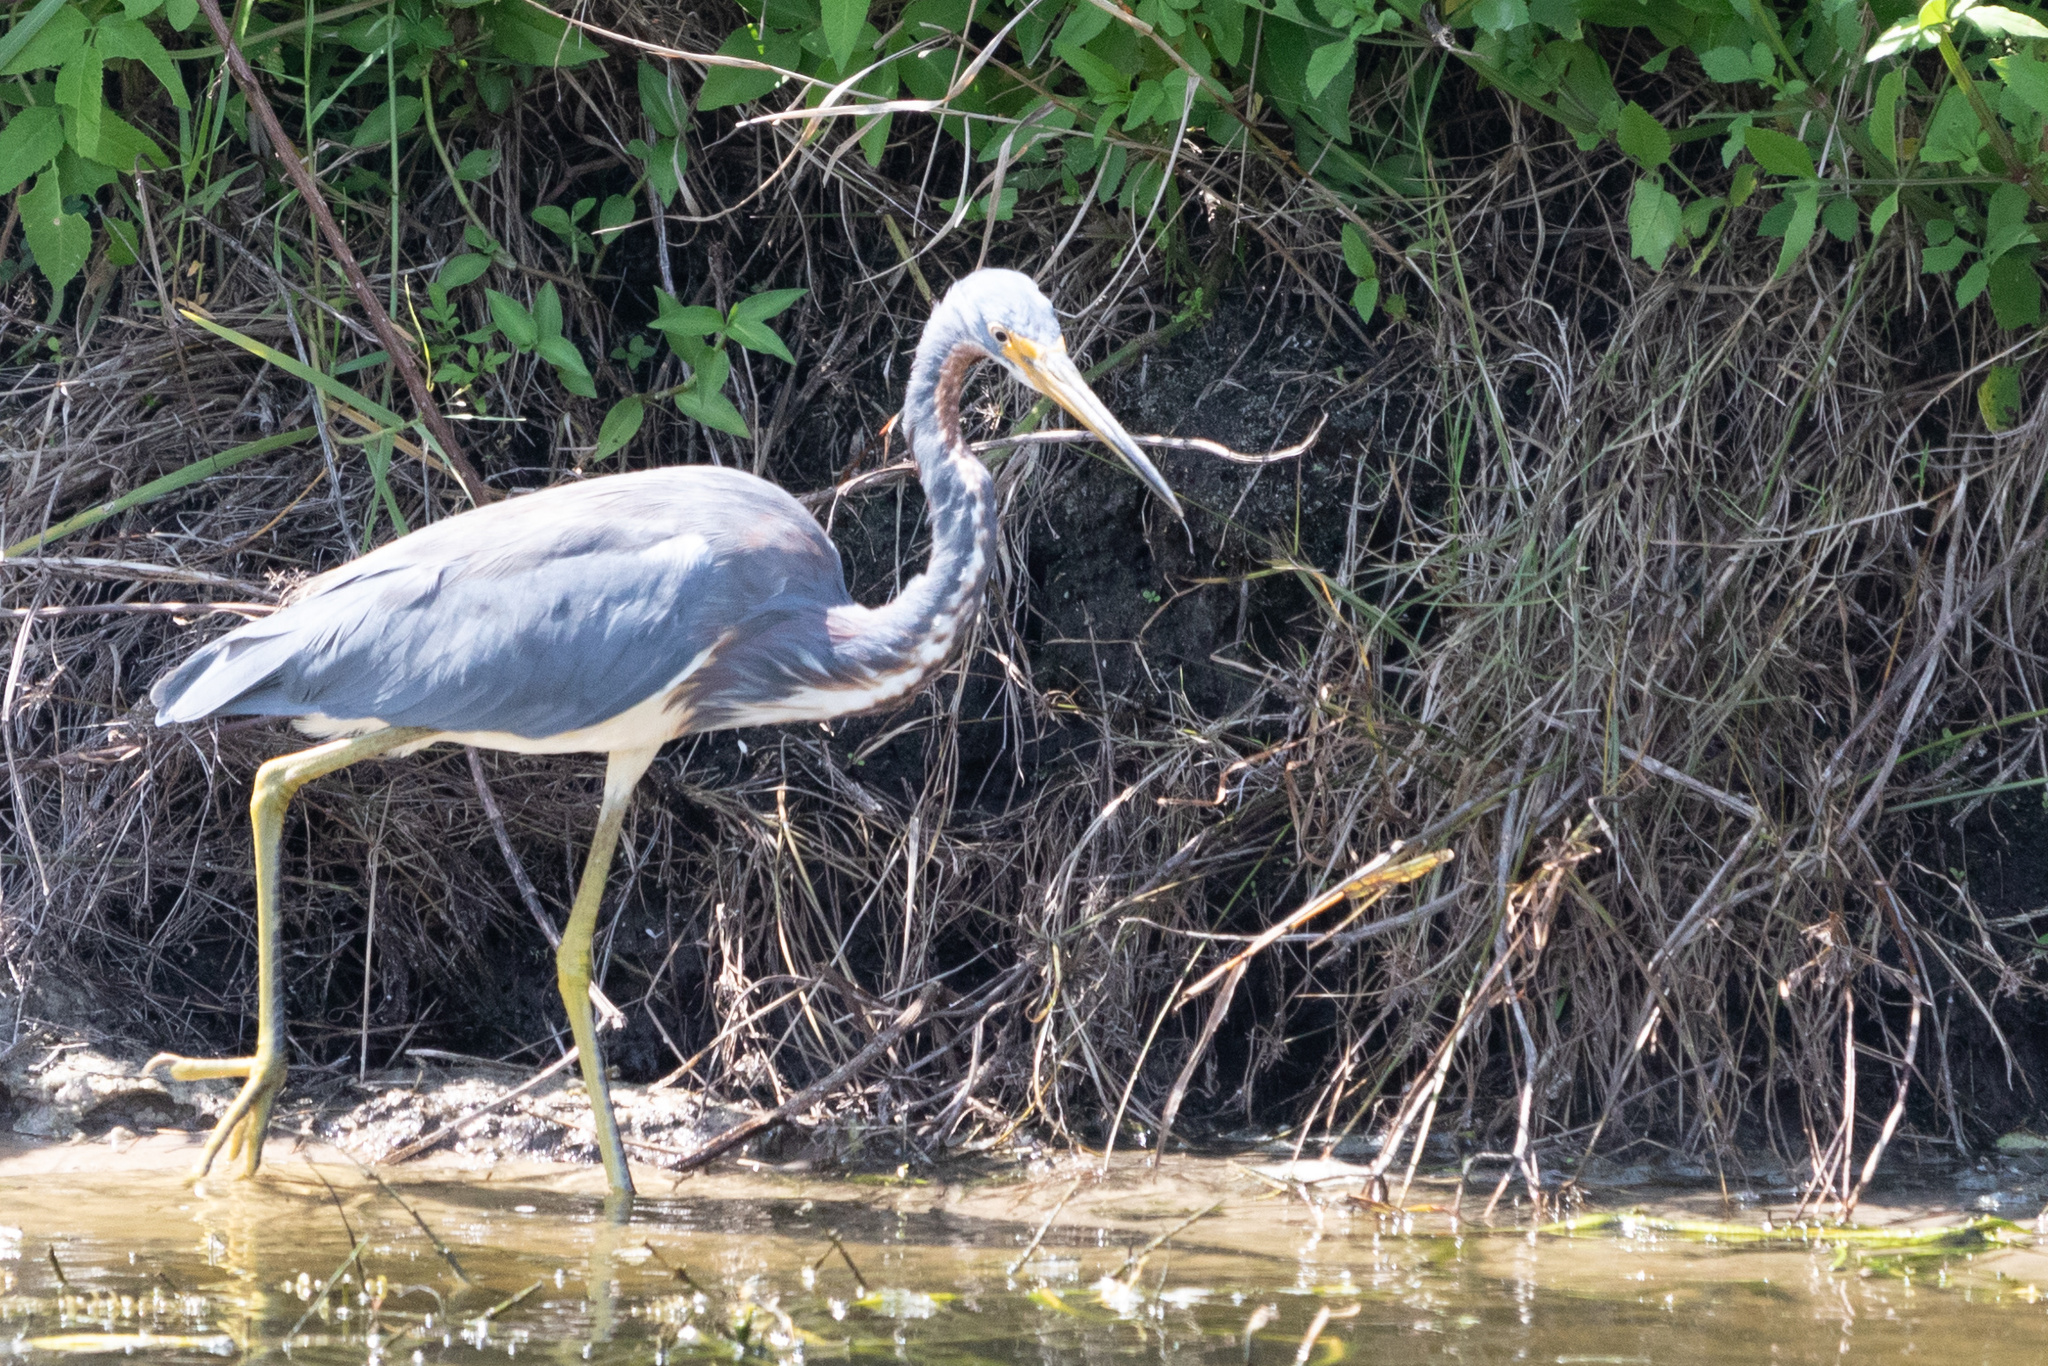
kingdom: Animalia
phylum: Chordata
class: Aves
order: Pelecaniformes
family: Ardeidae
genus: Egretta
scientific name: Egretta tricolor
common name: Tricolored heron
